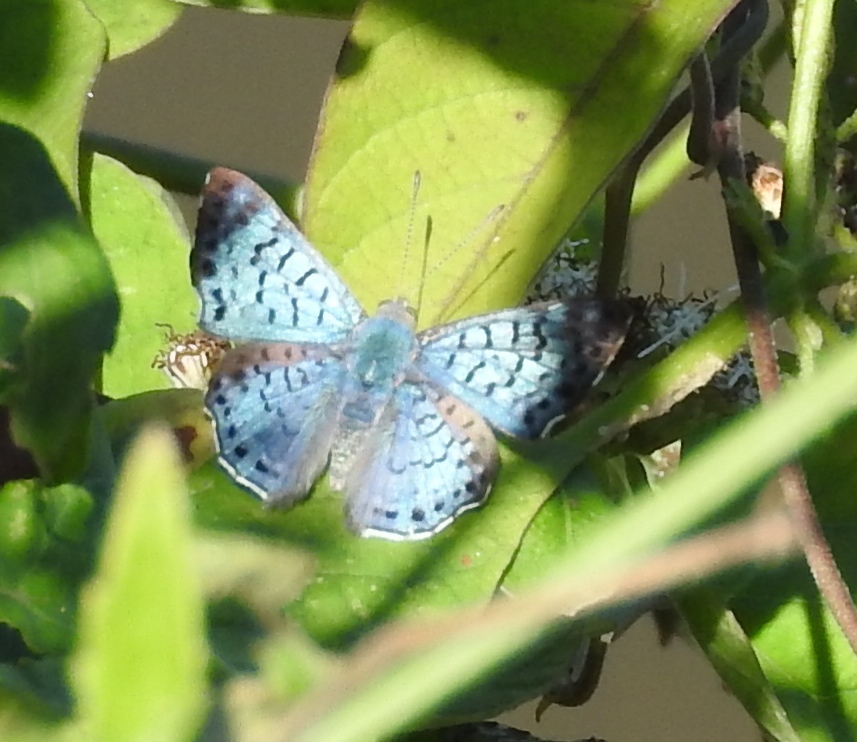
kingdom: Animalia
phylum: Arthropoda
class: Insecta
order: Lepidoptera
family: Riodinidae
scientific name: Riodinidae
